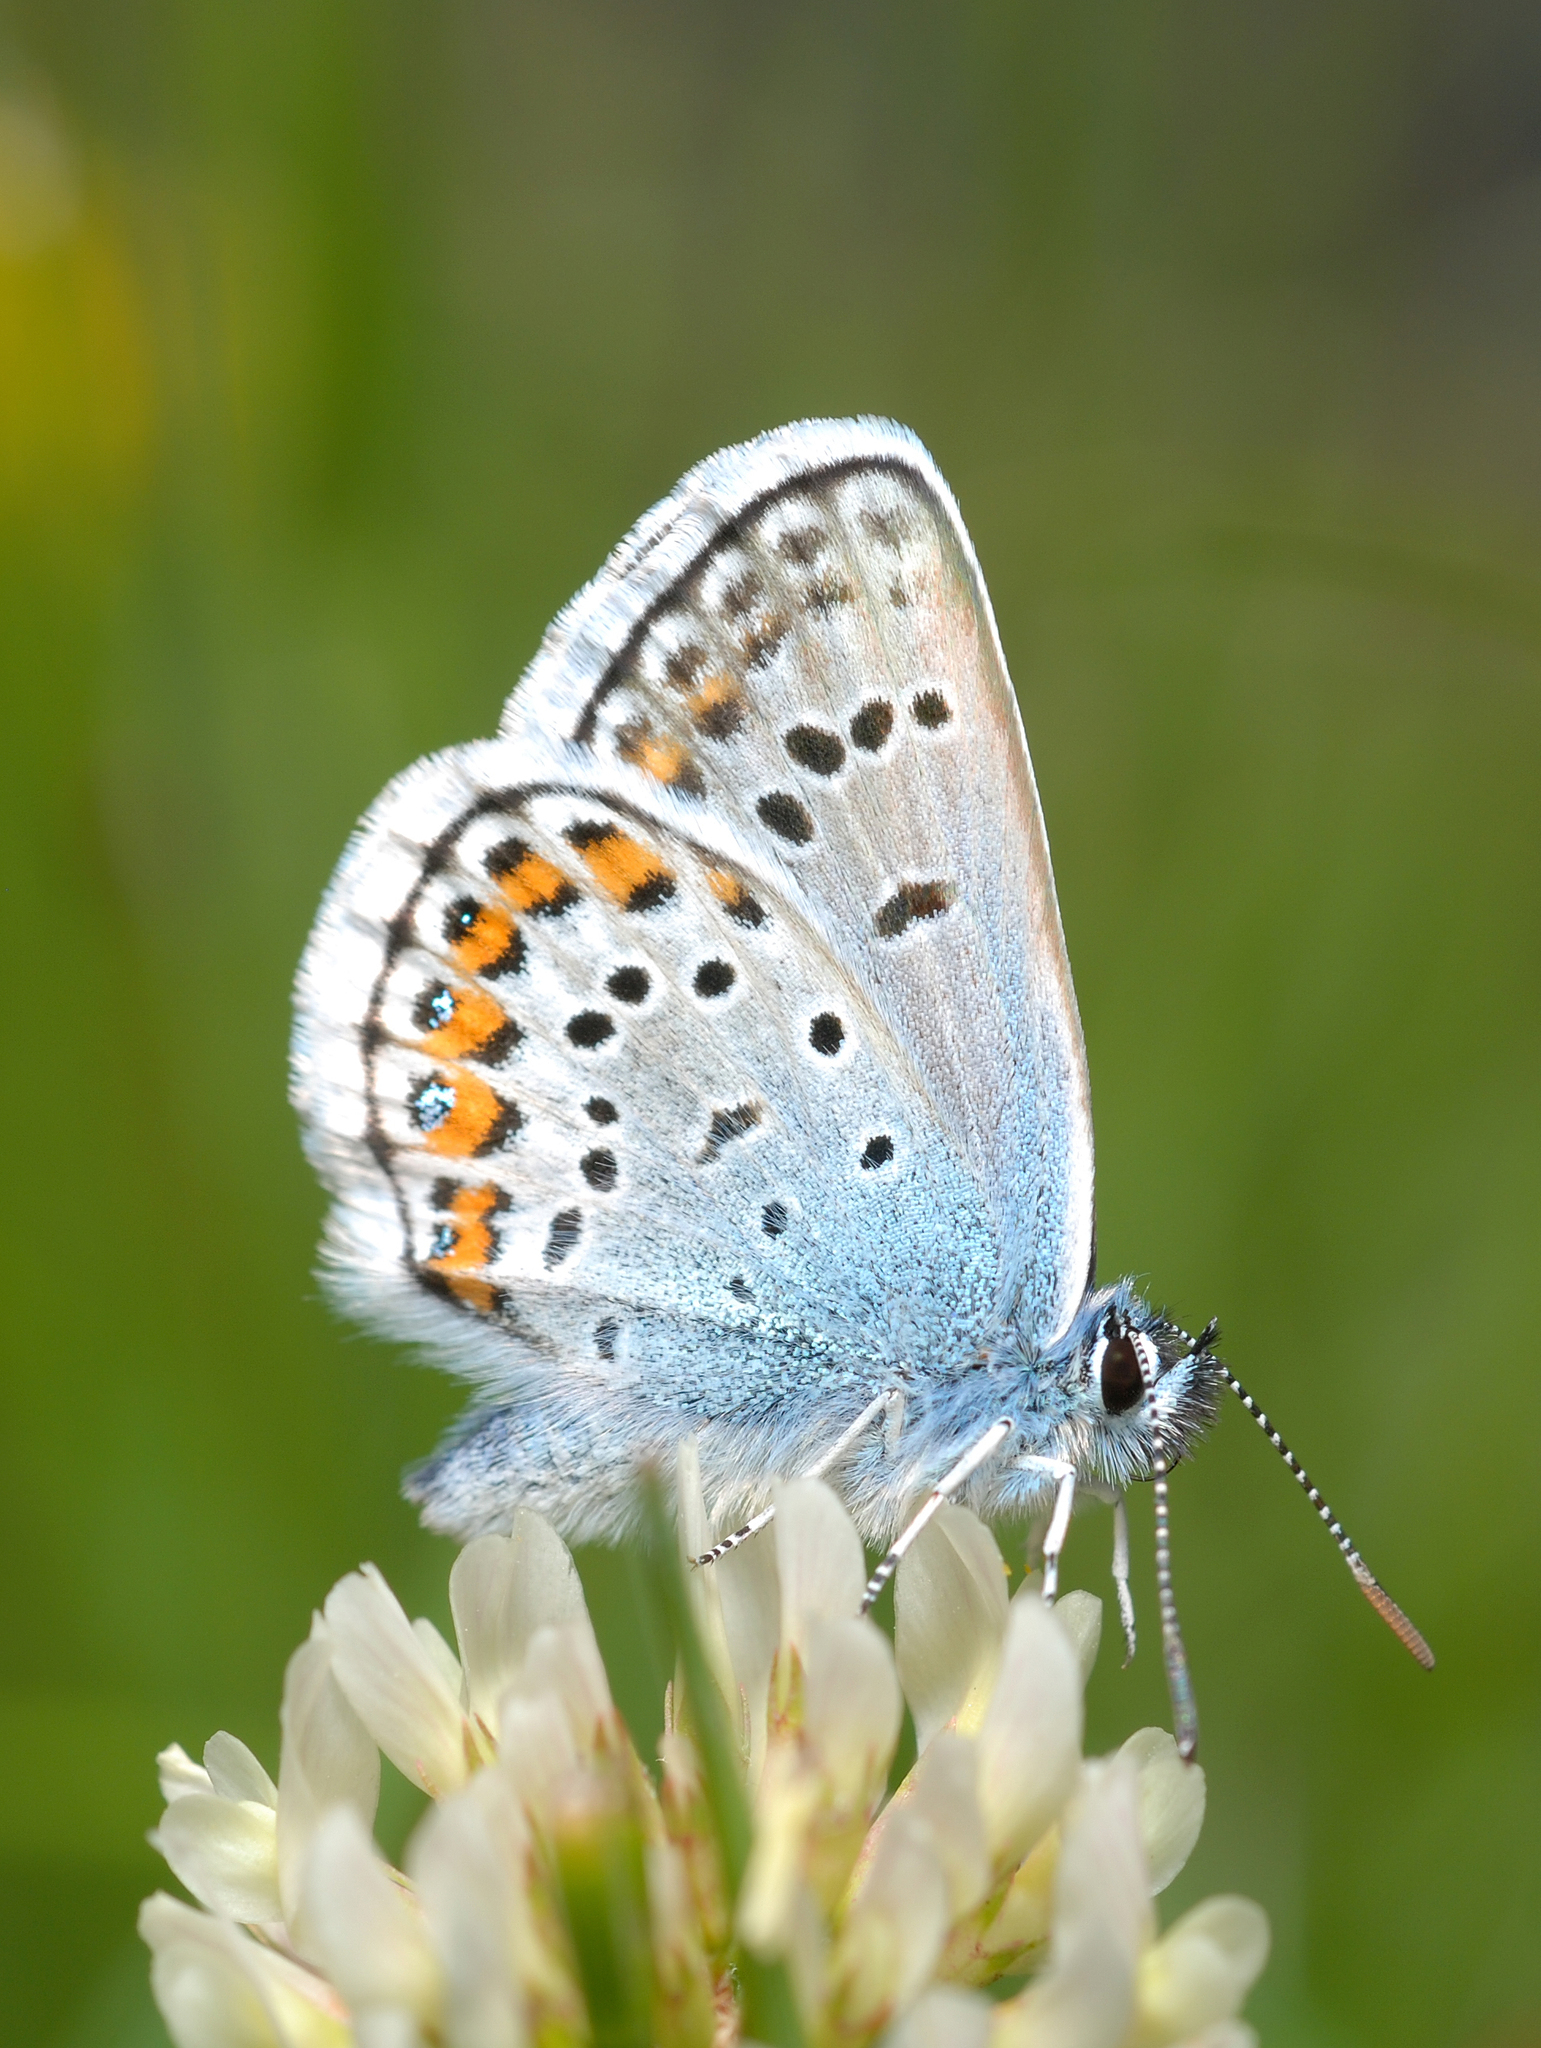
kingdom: Animalia
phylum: Arthropoda
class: Insecta
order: Lepidoptera
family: Lycaenidae
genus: Plebejus
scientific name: Plebejus argus
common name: Silver-studded blue
